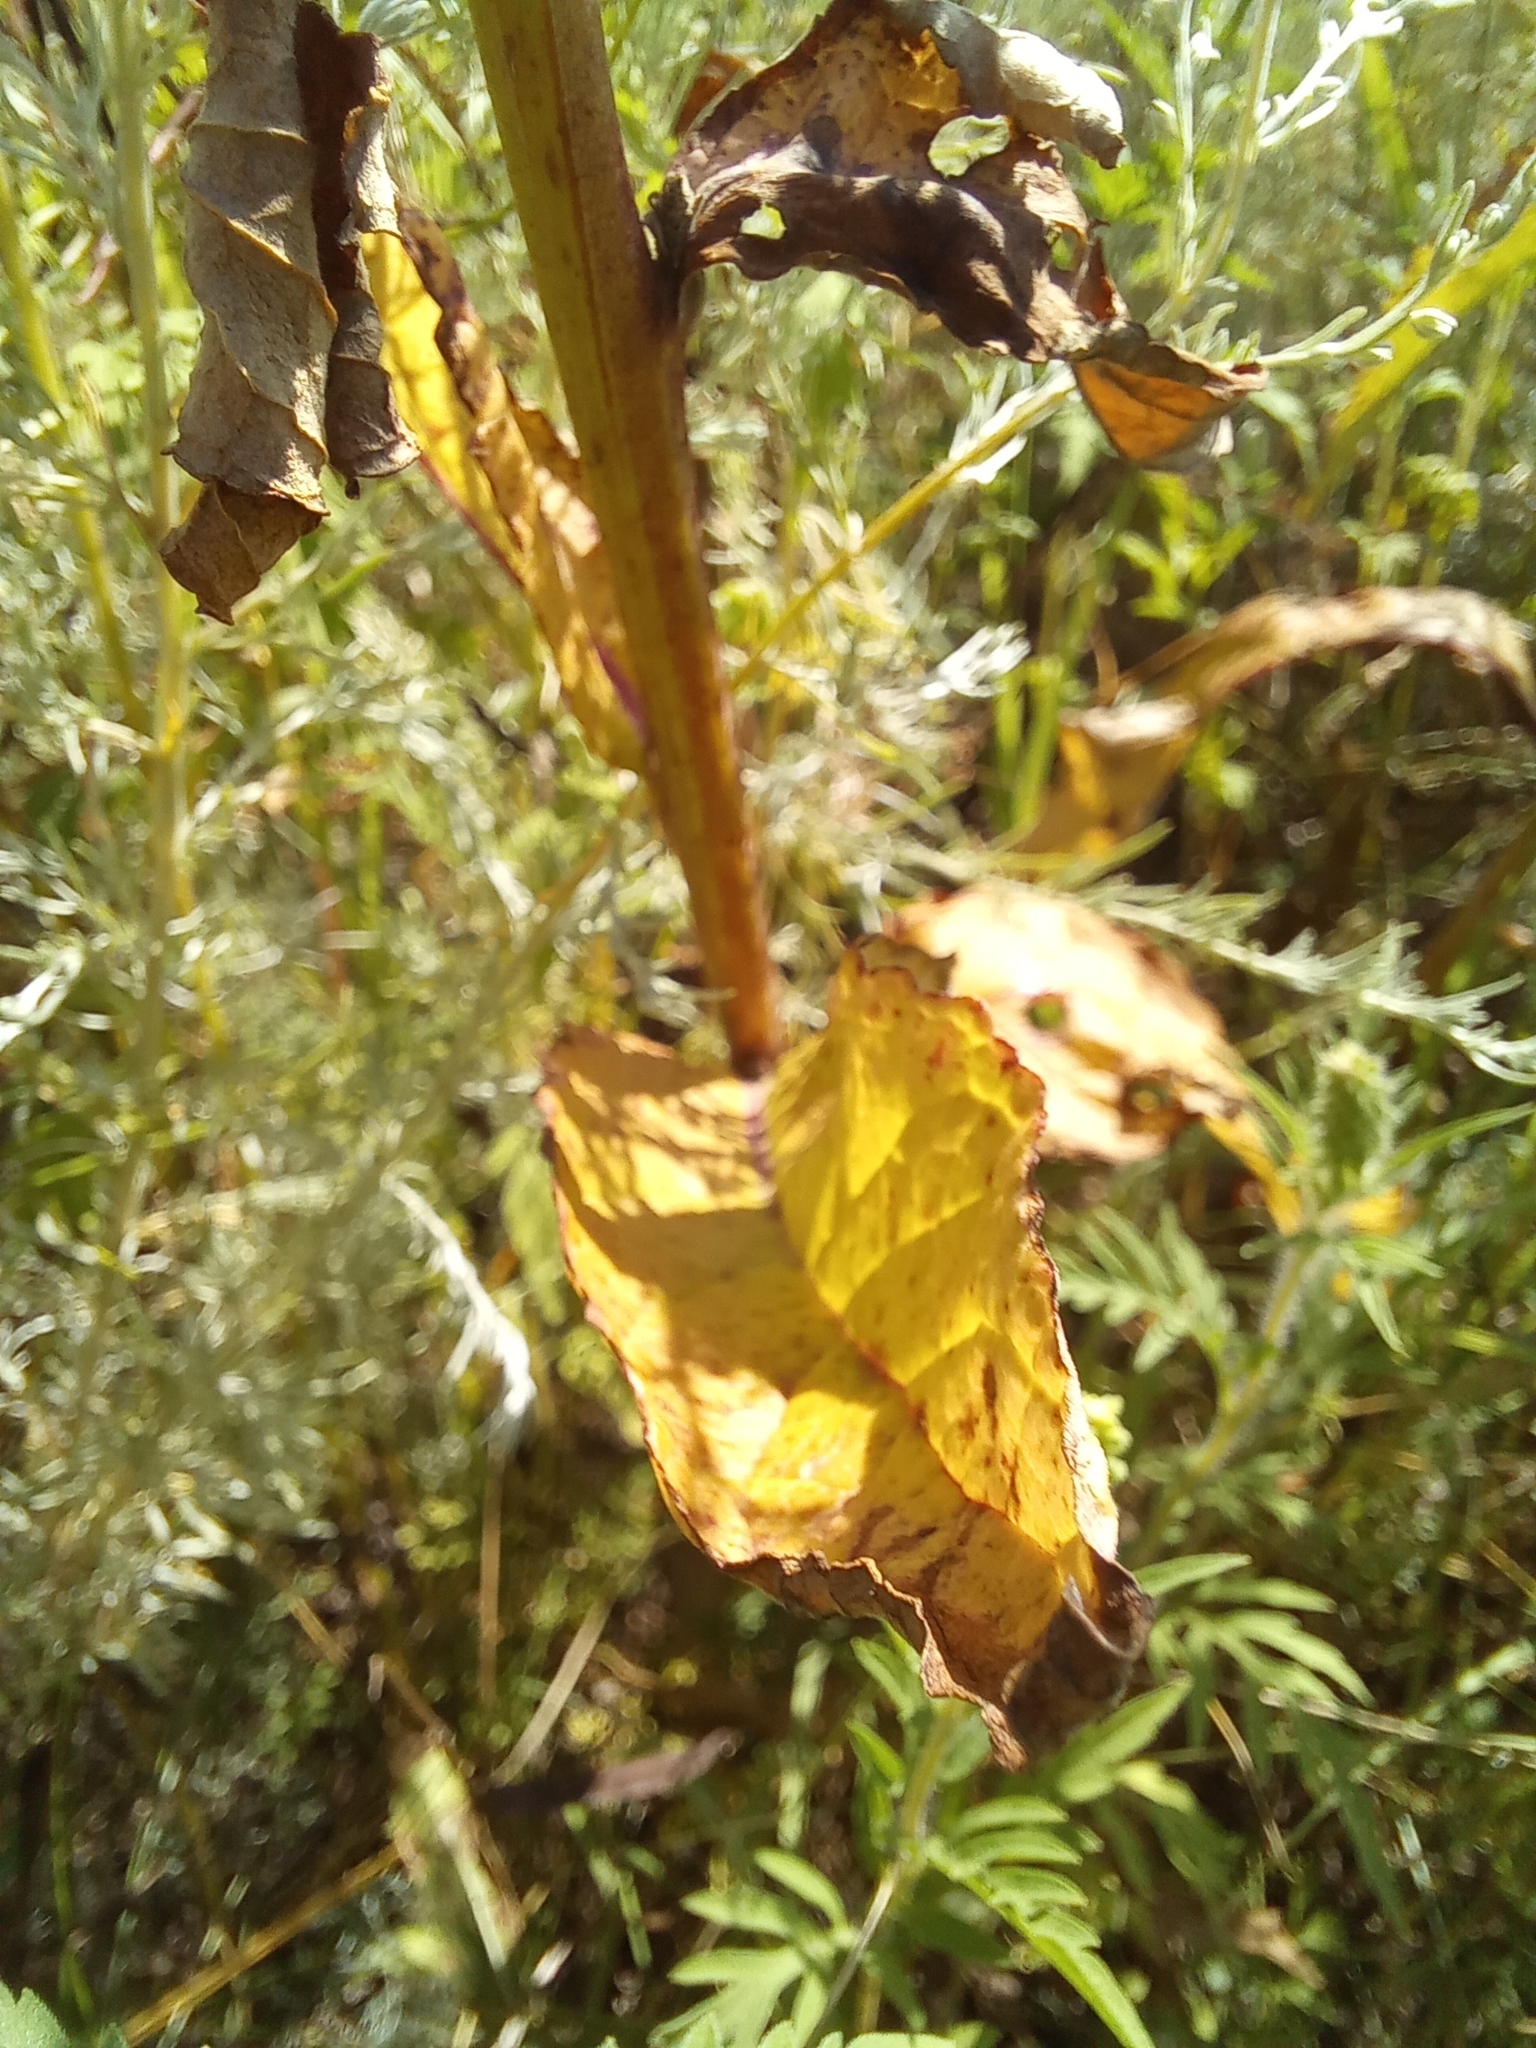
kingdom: Plantae
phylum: Tracheophyta
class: Magnoliopsida
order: Lamiales
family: Scrophulariaceae
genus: Verbascum
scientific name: Verbascum lychnitis
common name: White mullein
